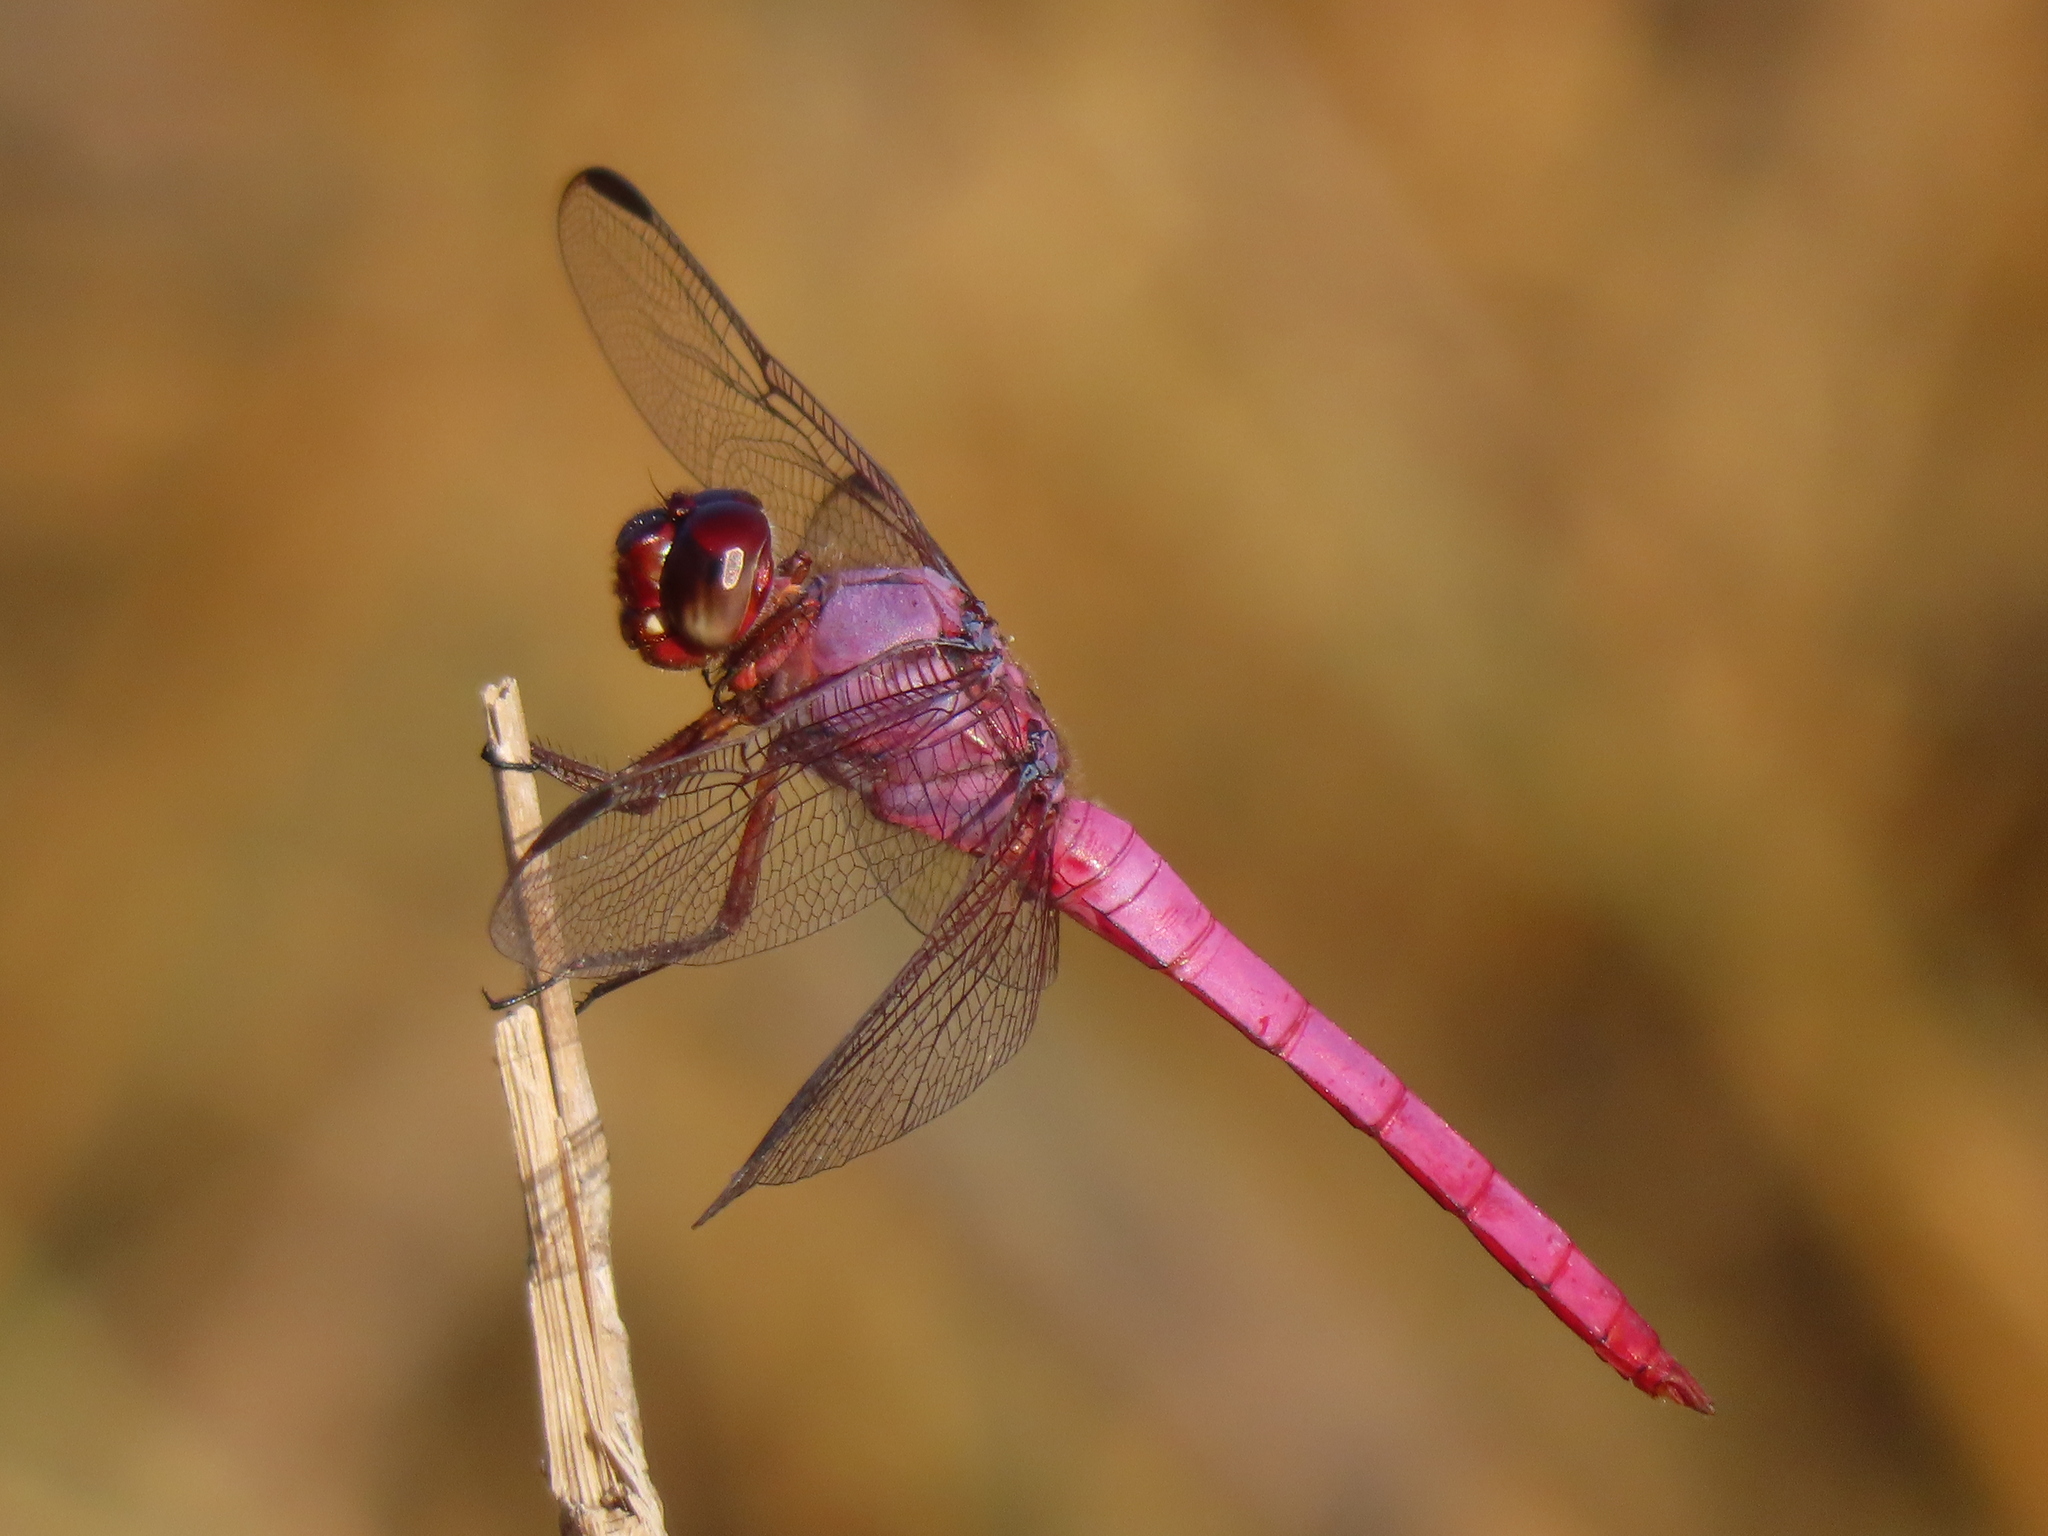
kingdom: Animalia
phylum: Arthropoda
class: Insecta
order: Odonata
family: Libellulidae
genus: Orthemis
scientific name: Orthemis ferruginea
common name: Roseate skimmer
